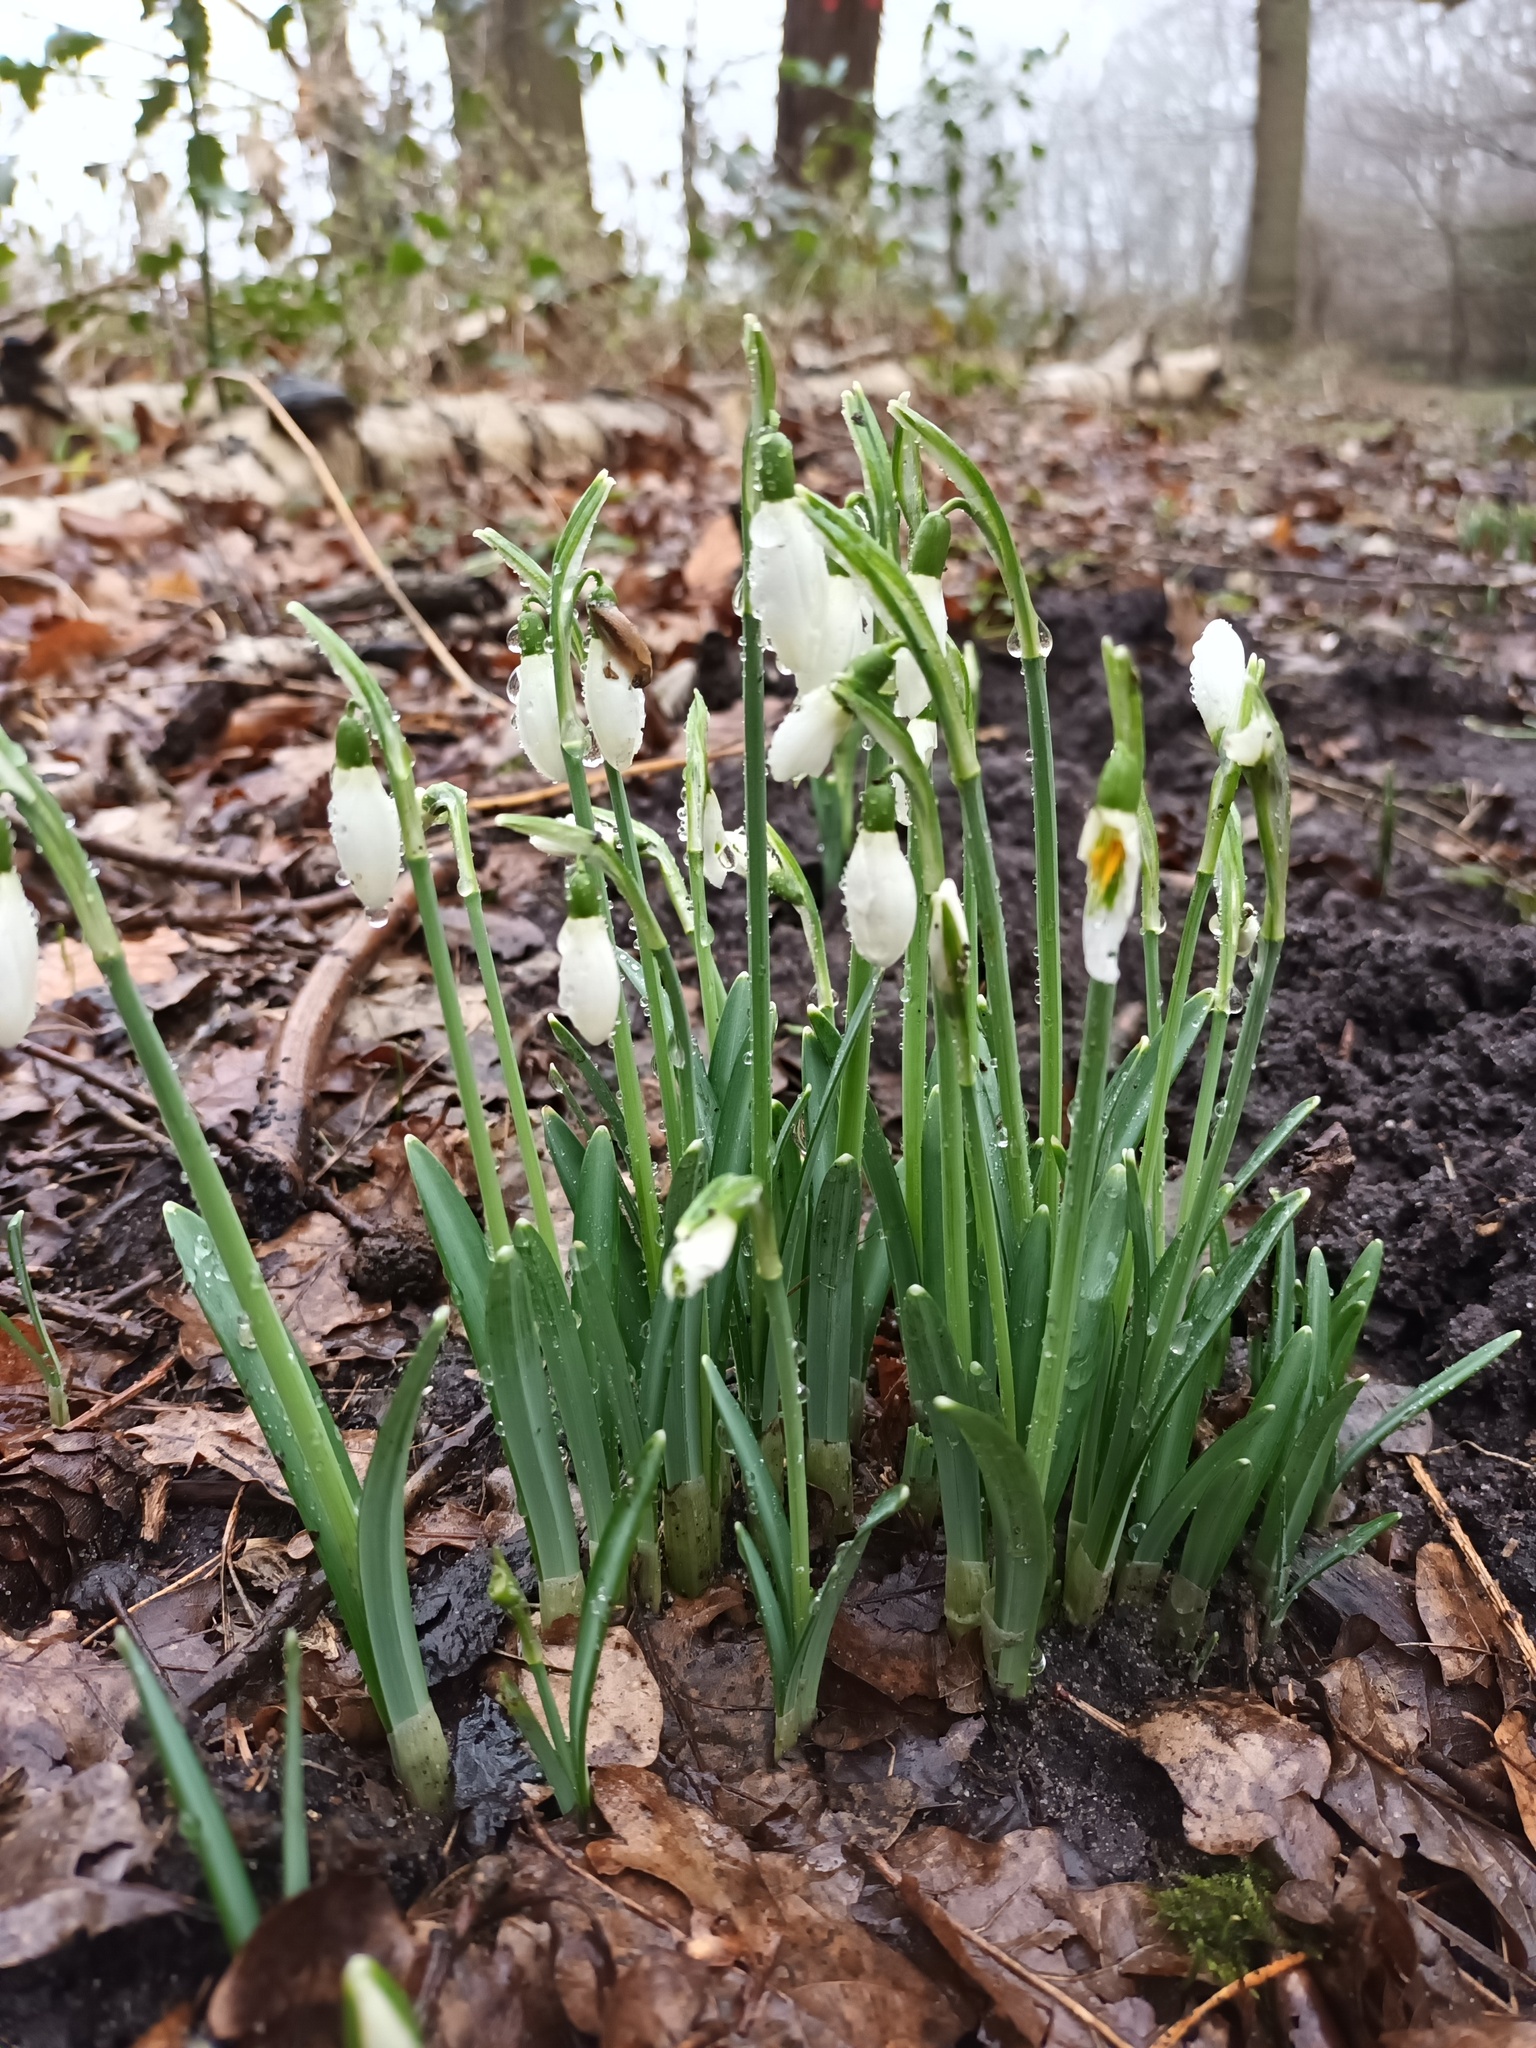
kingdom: Plantae
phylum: Tracheophyta
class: Liliopsida
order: Asparagales
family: Amaryllidaceae
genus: Galanthus
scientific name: Galanthus nivalis
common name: Snowdrop
